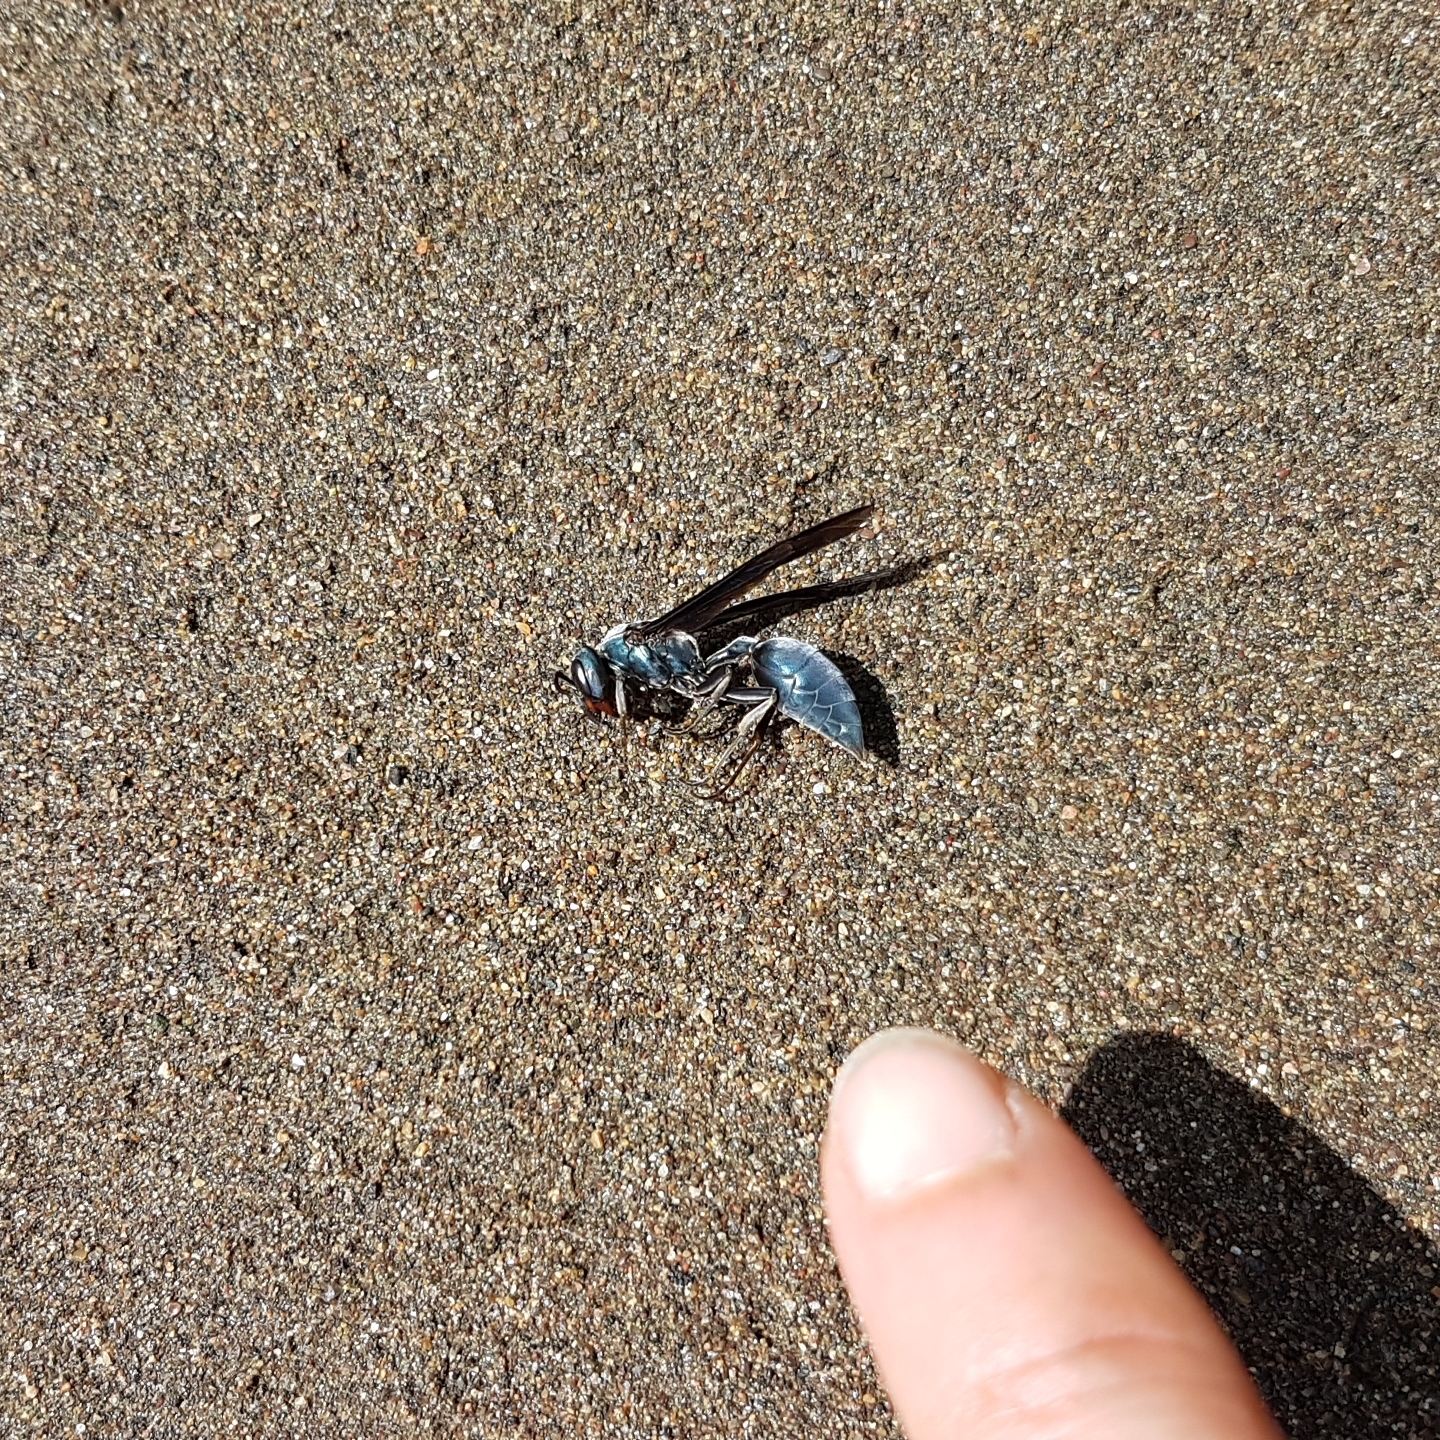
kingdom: Animalia
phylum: Arthropoda
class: Insecta
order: Hymenoptera
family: Vespidae
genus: Synoeca
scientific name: Synoeca septentrionalis
